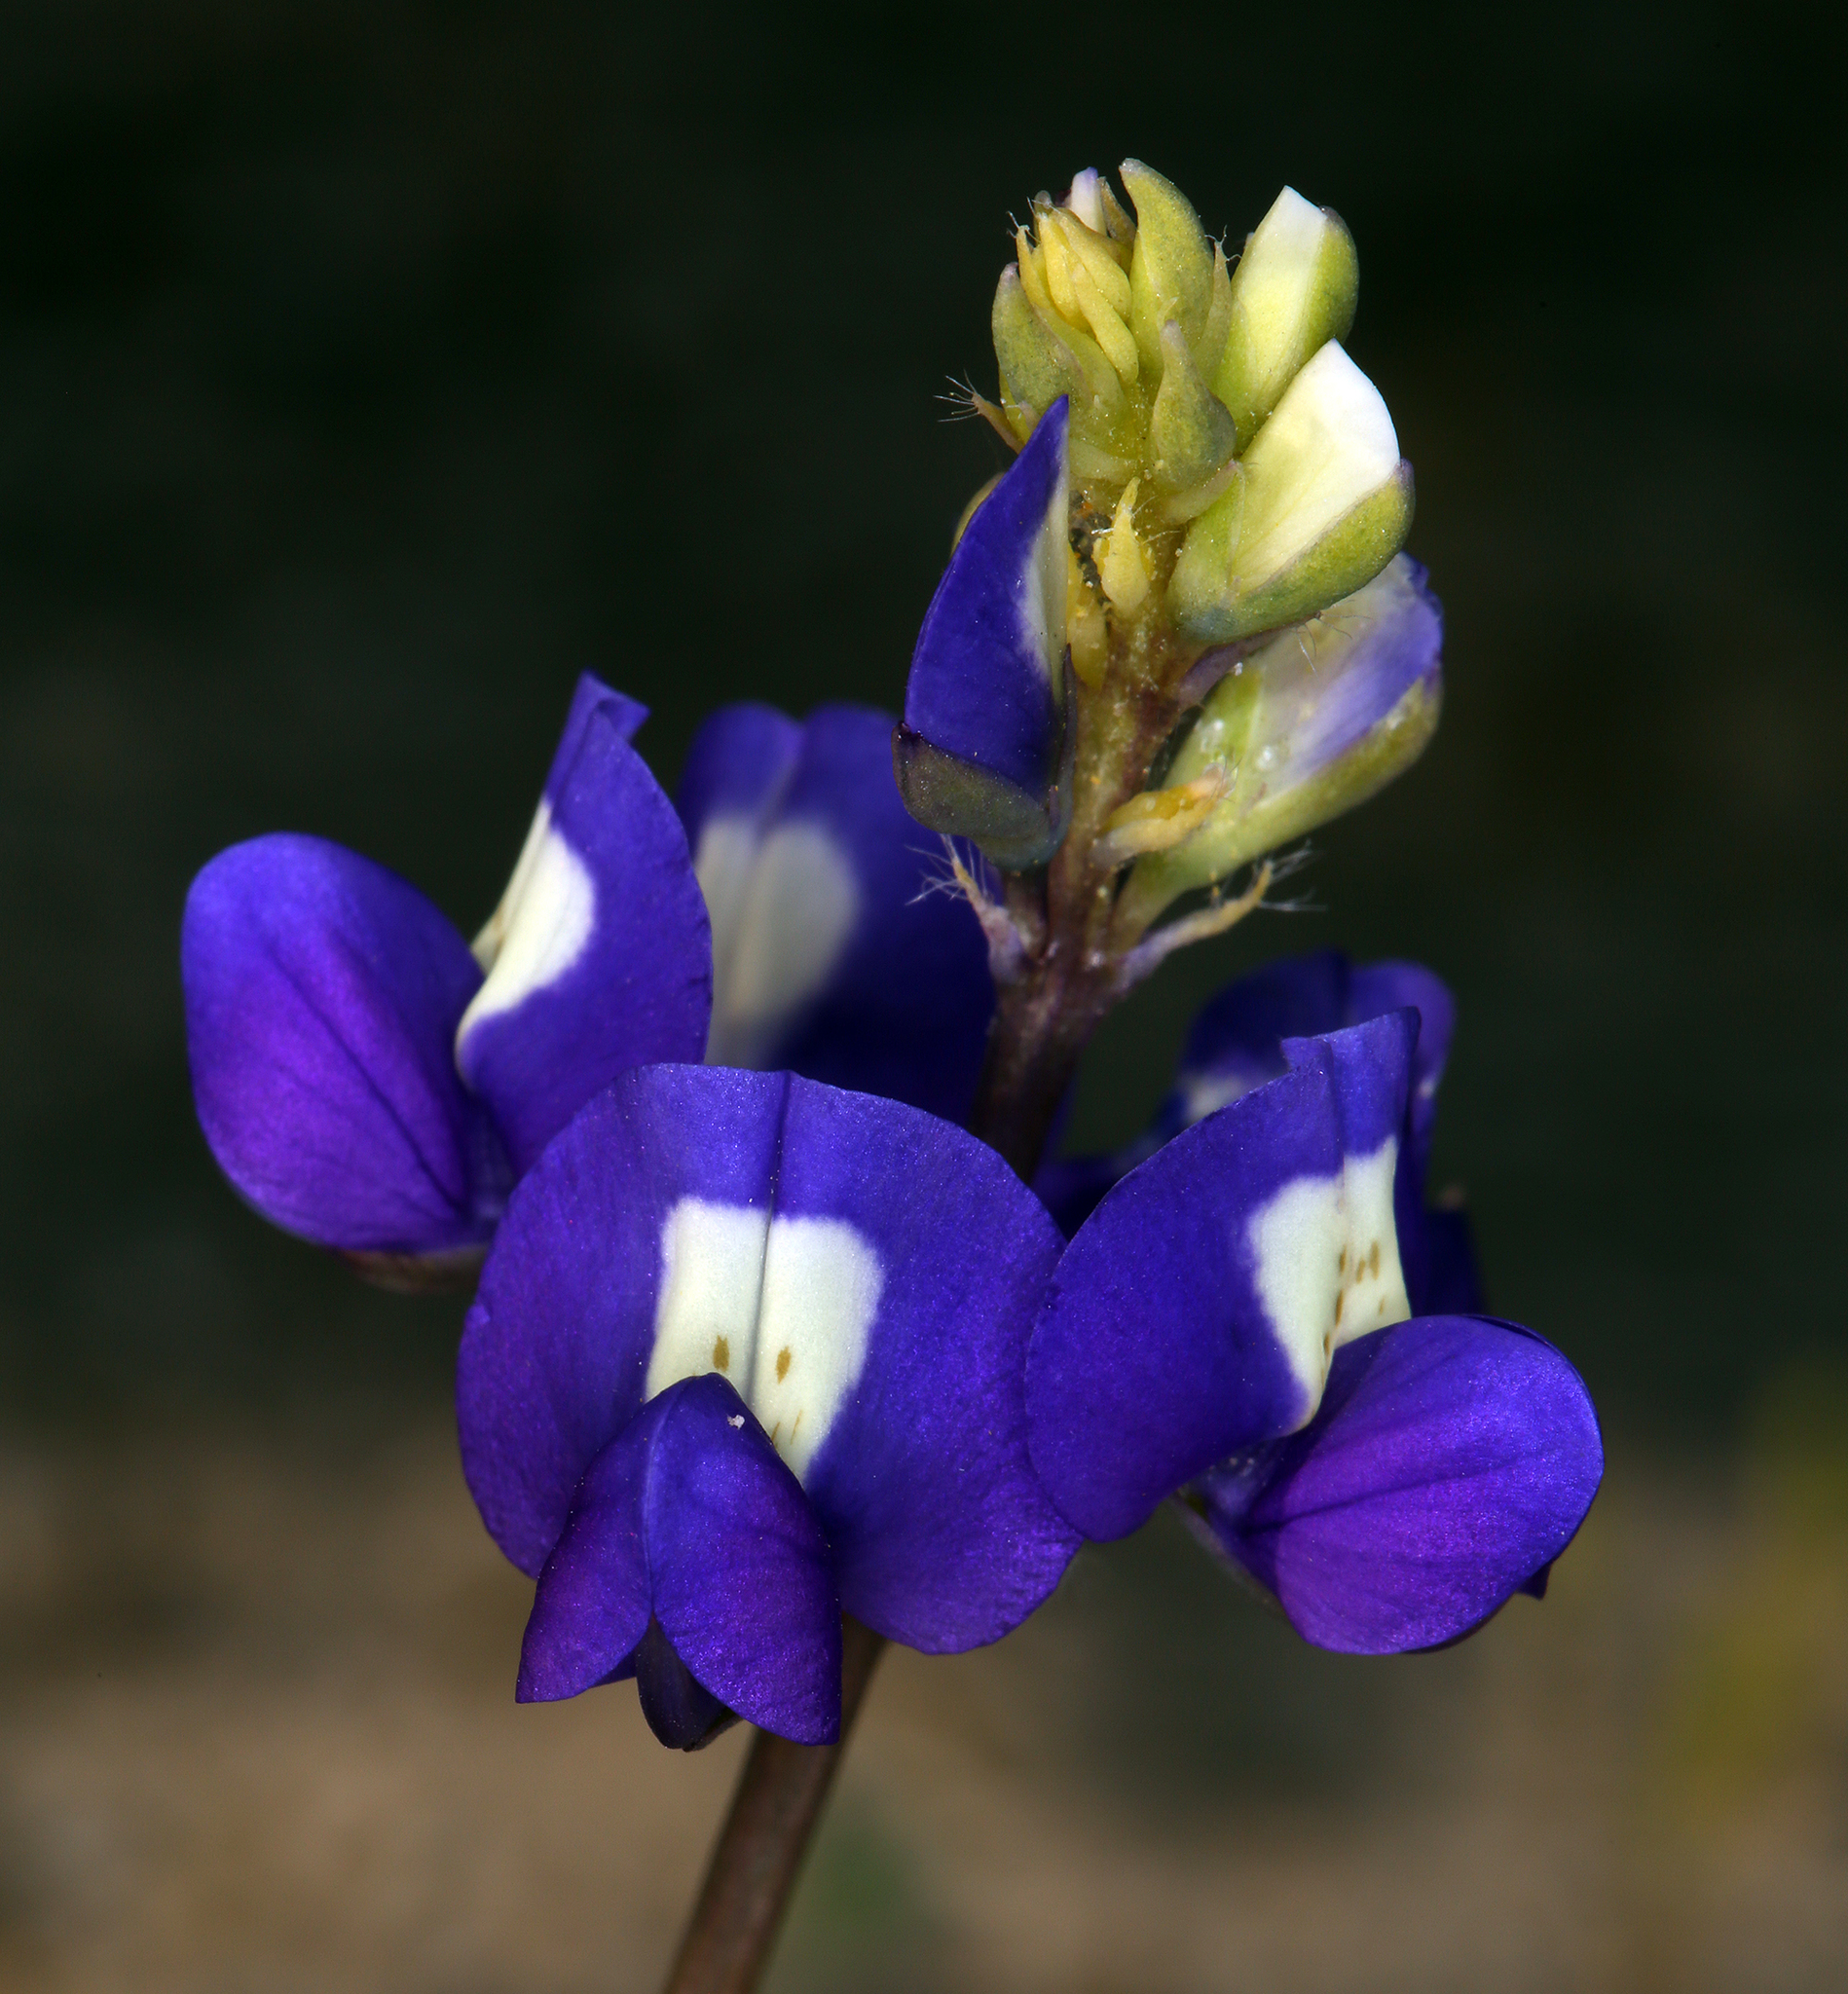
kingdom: Plantae
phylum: Tracheophyta
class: Magnoliopsida
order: Fabales
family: Fabaceae
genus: Lupinus
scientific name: Lupinus
